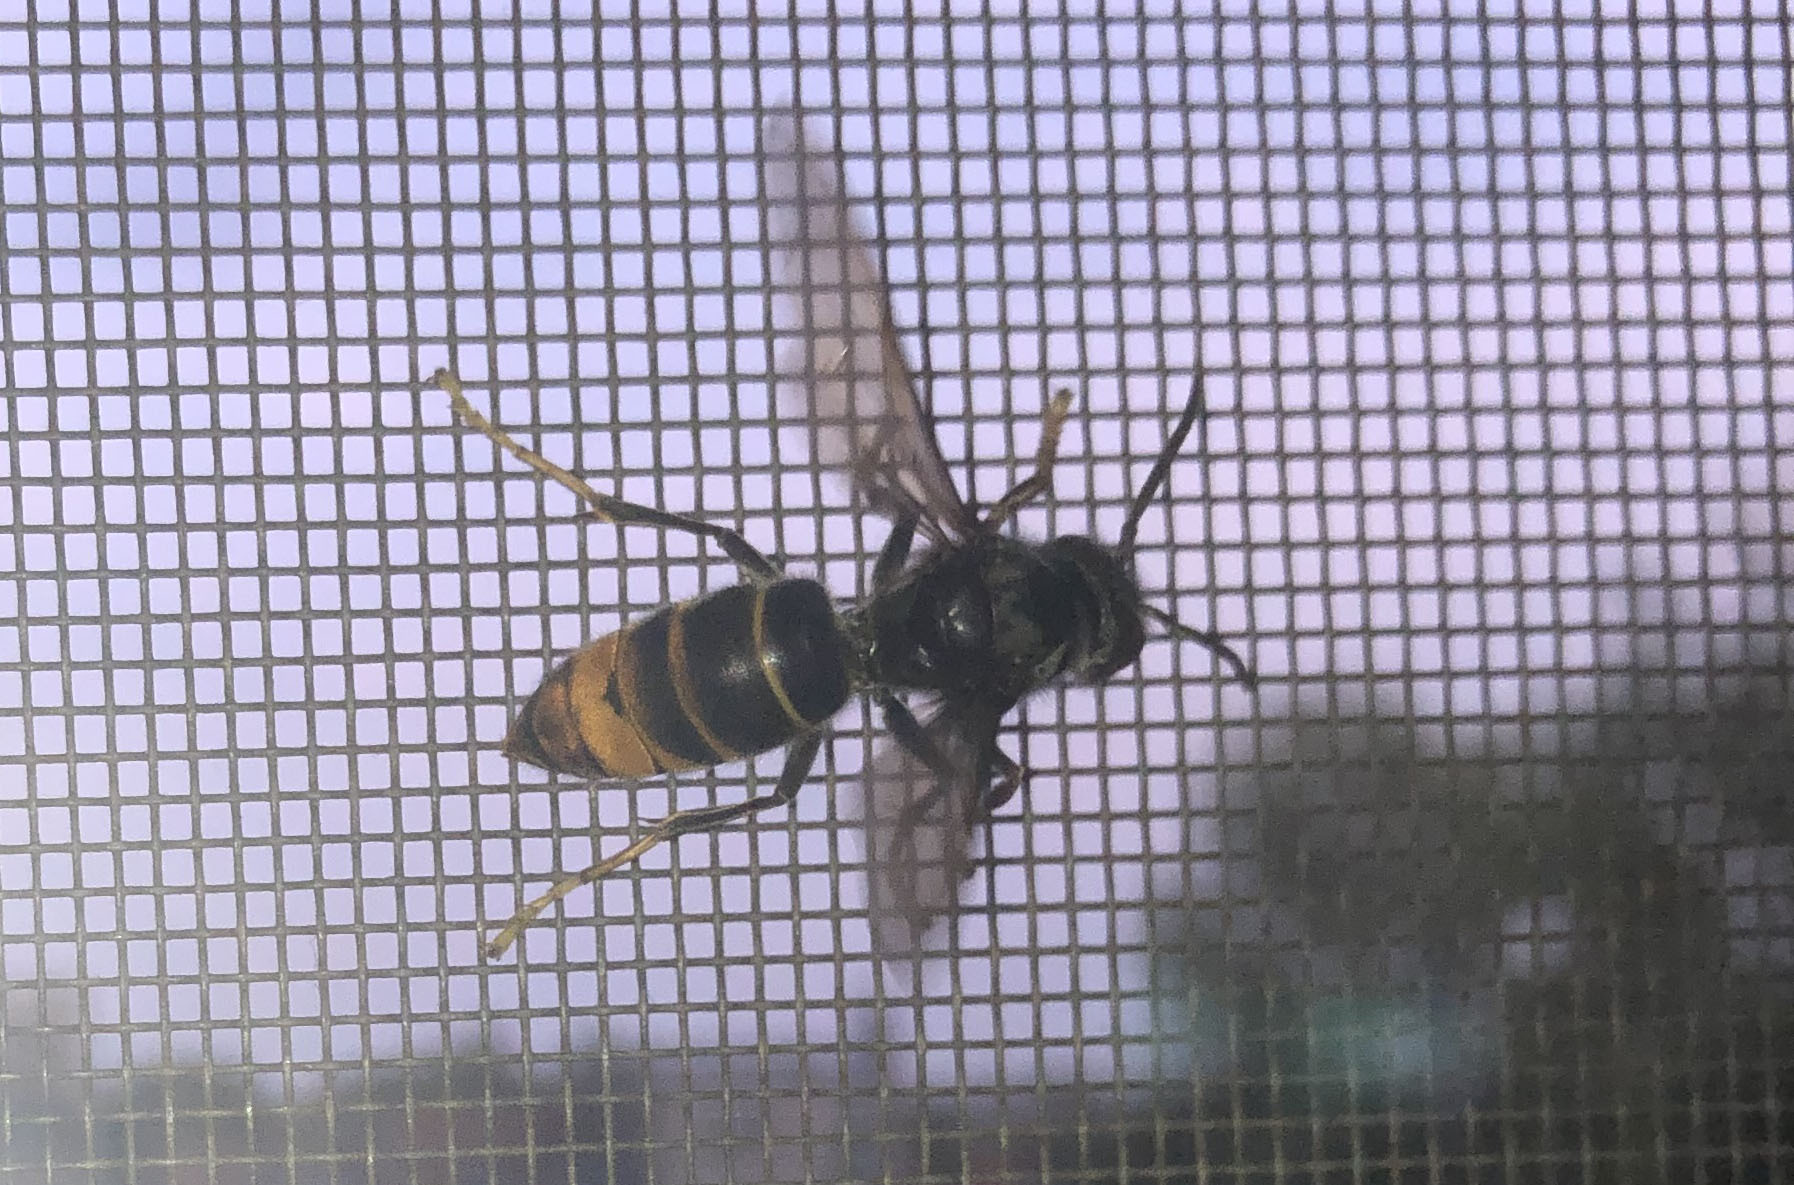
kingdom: Animalia
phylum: Arthropoda
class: Insecta
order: Hymenoptera
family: Vespidae
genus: Vespa
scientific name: Vespa velutina
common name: Asian hornet
